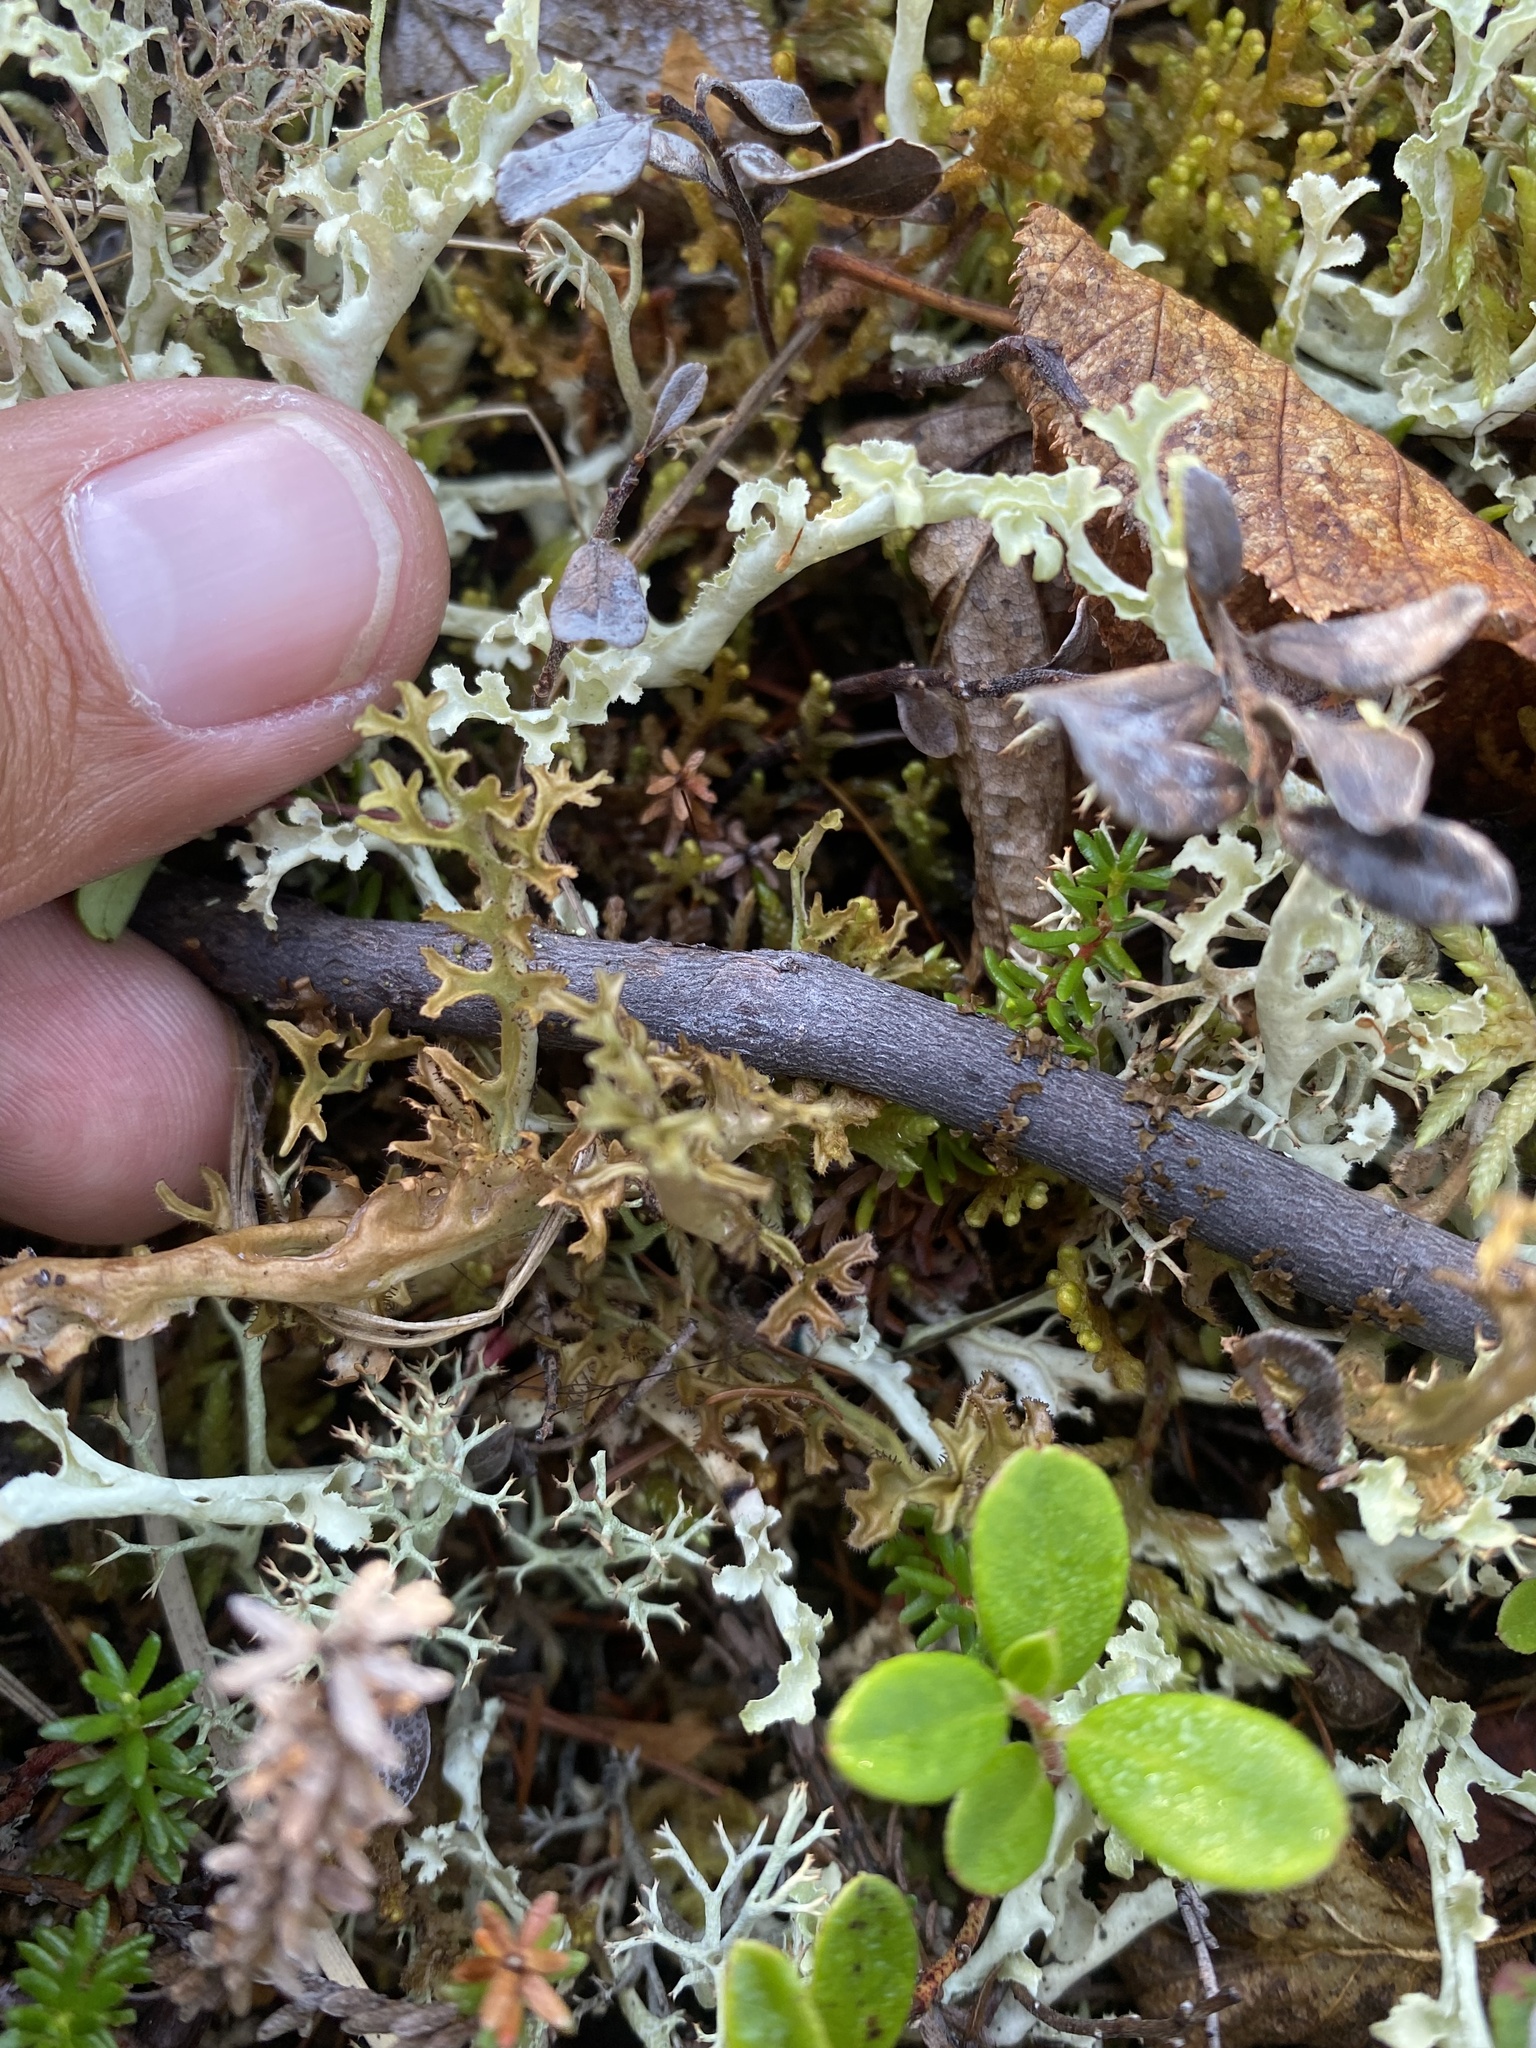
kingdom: Fungi
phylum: Ascomycota
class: Lecanoromycetes
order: Lecanorales
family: Parmeliaceae
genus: Cetraria
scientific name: Cetraria islandica
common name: Iceland lichen
